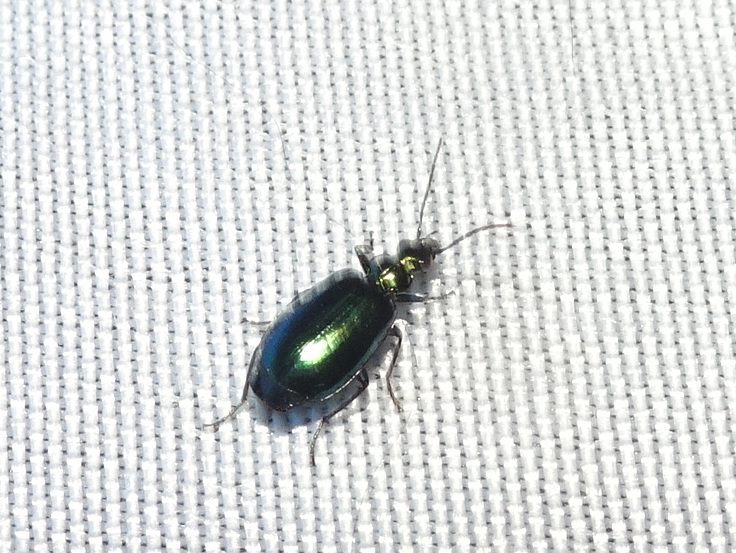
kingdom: Animalia
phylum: Arthropoda
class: Insecta
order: Coleoptera
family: Carabidae
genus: Lebia
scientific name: Lebia viridis
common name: Flower lebia beetle
